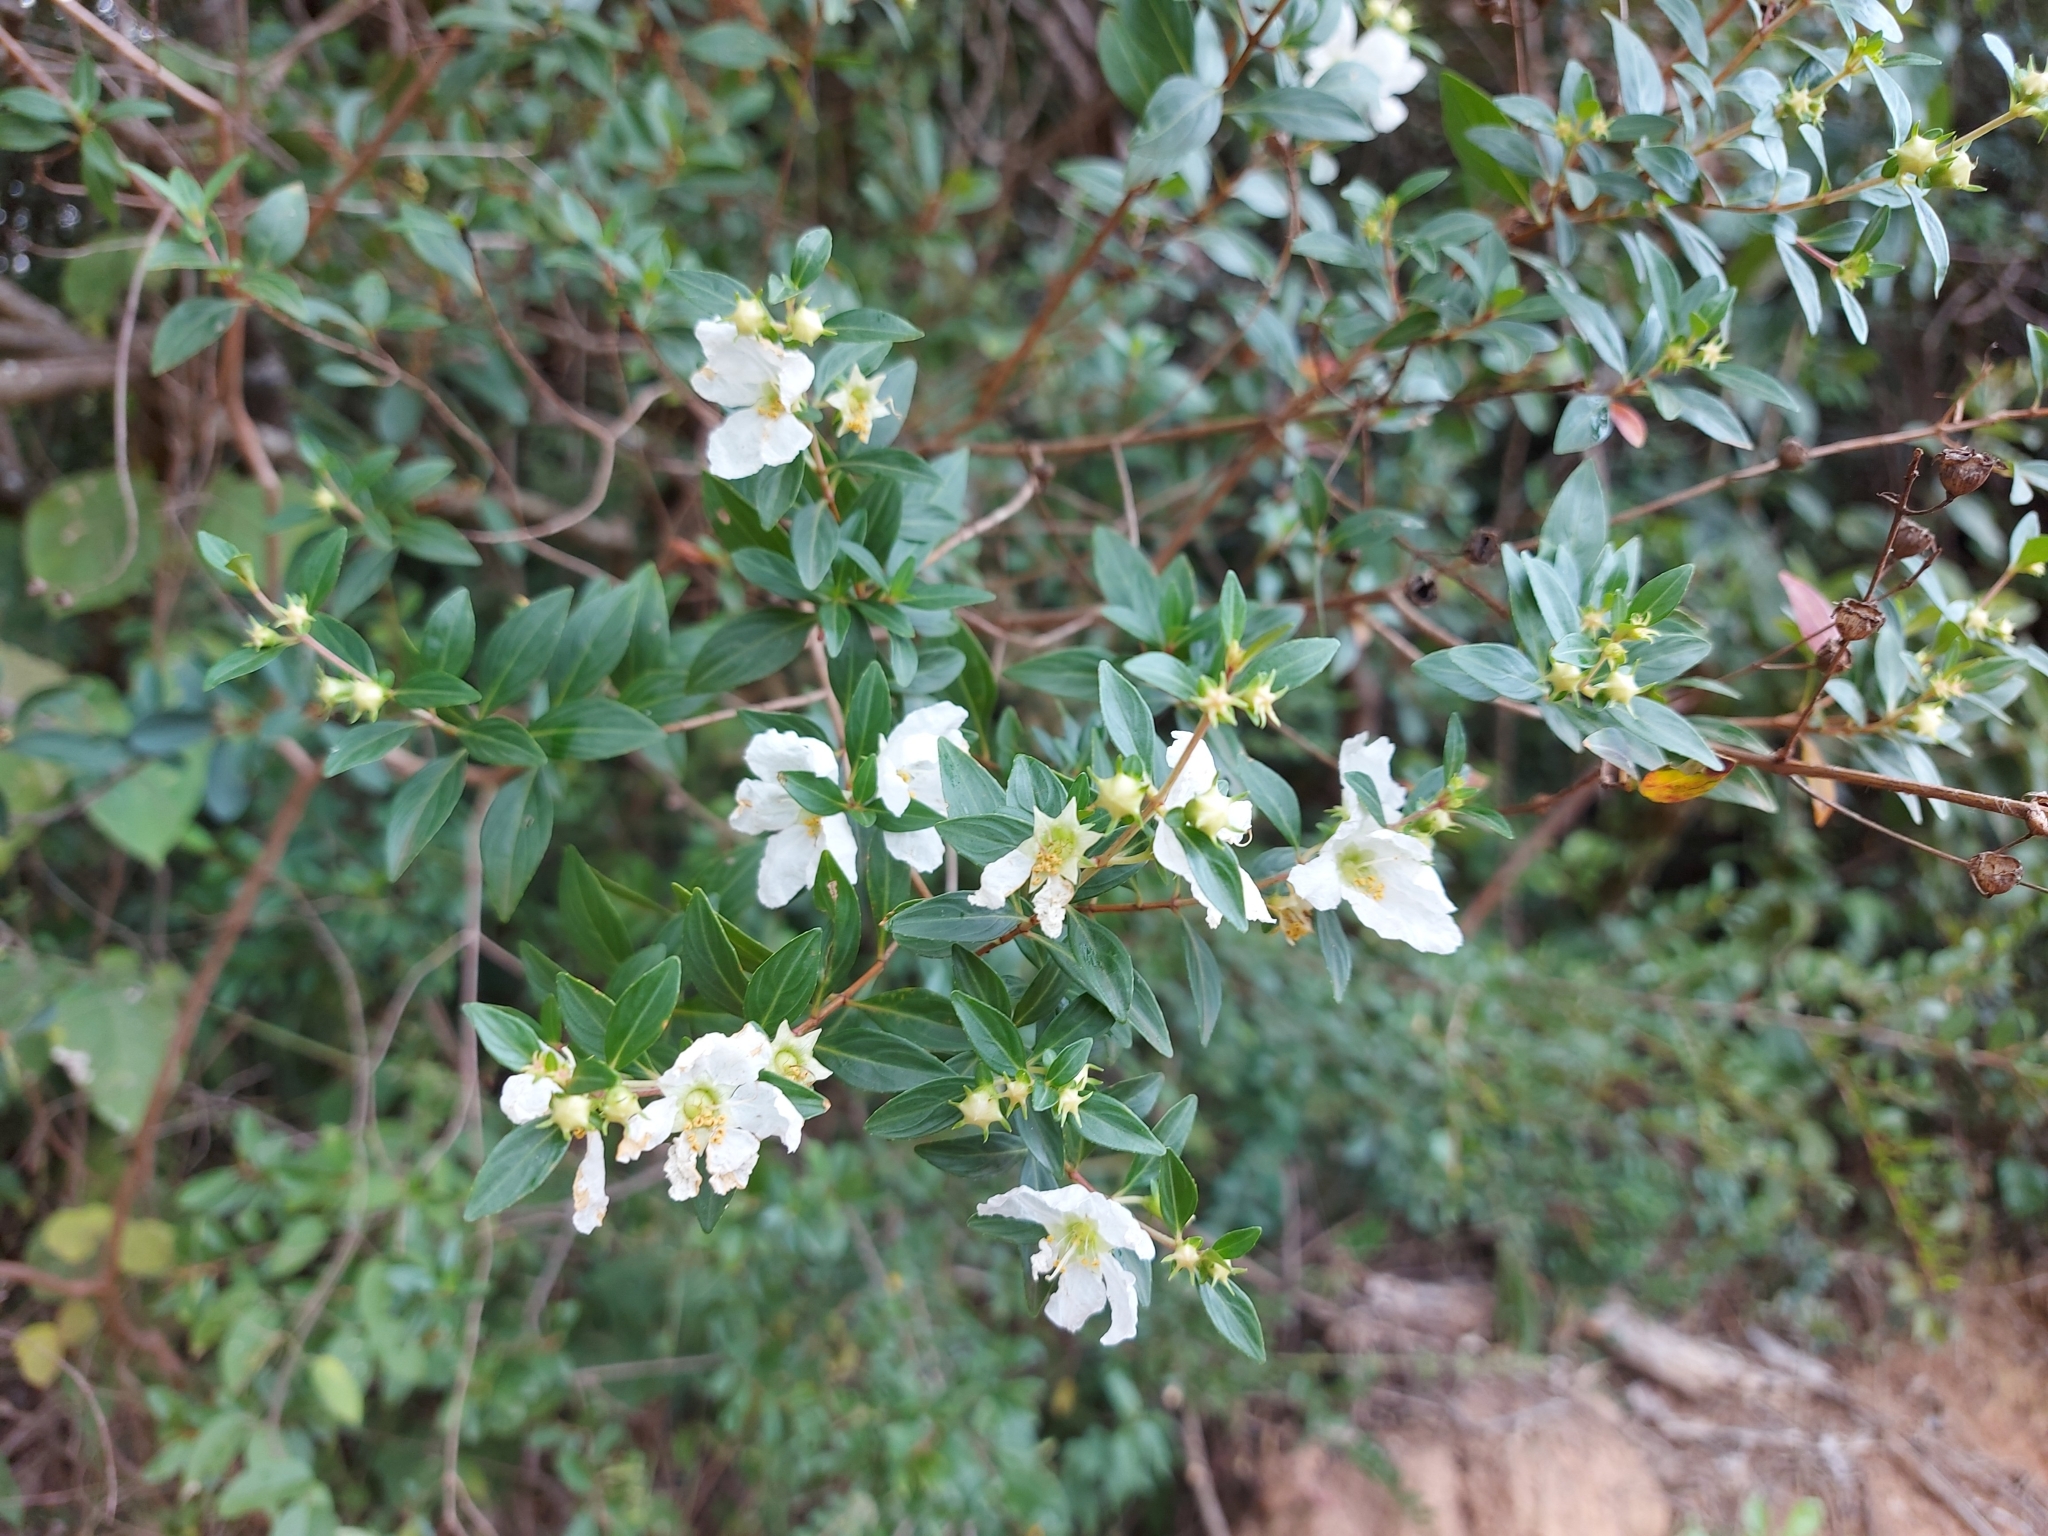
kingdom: Plantae
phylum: Tracheophyta
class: Magnoliopsida
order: Myrtales
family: Lythraceae
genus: Diplusodon
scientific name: Diplusodon virgatus
